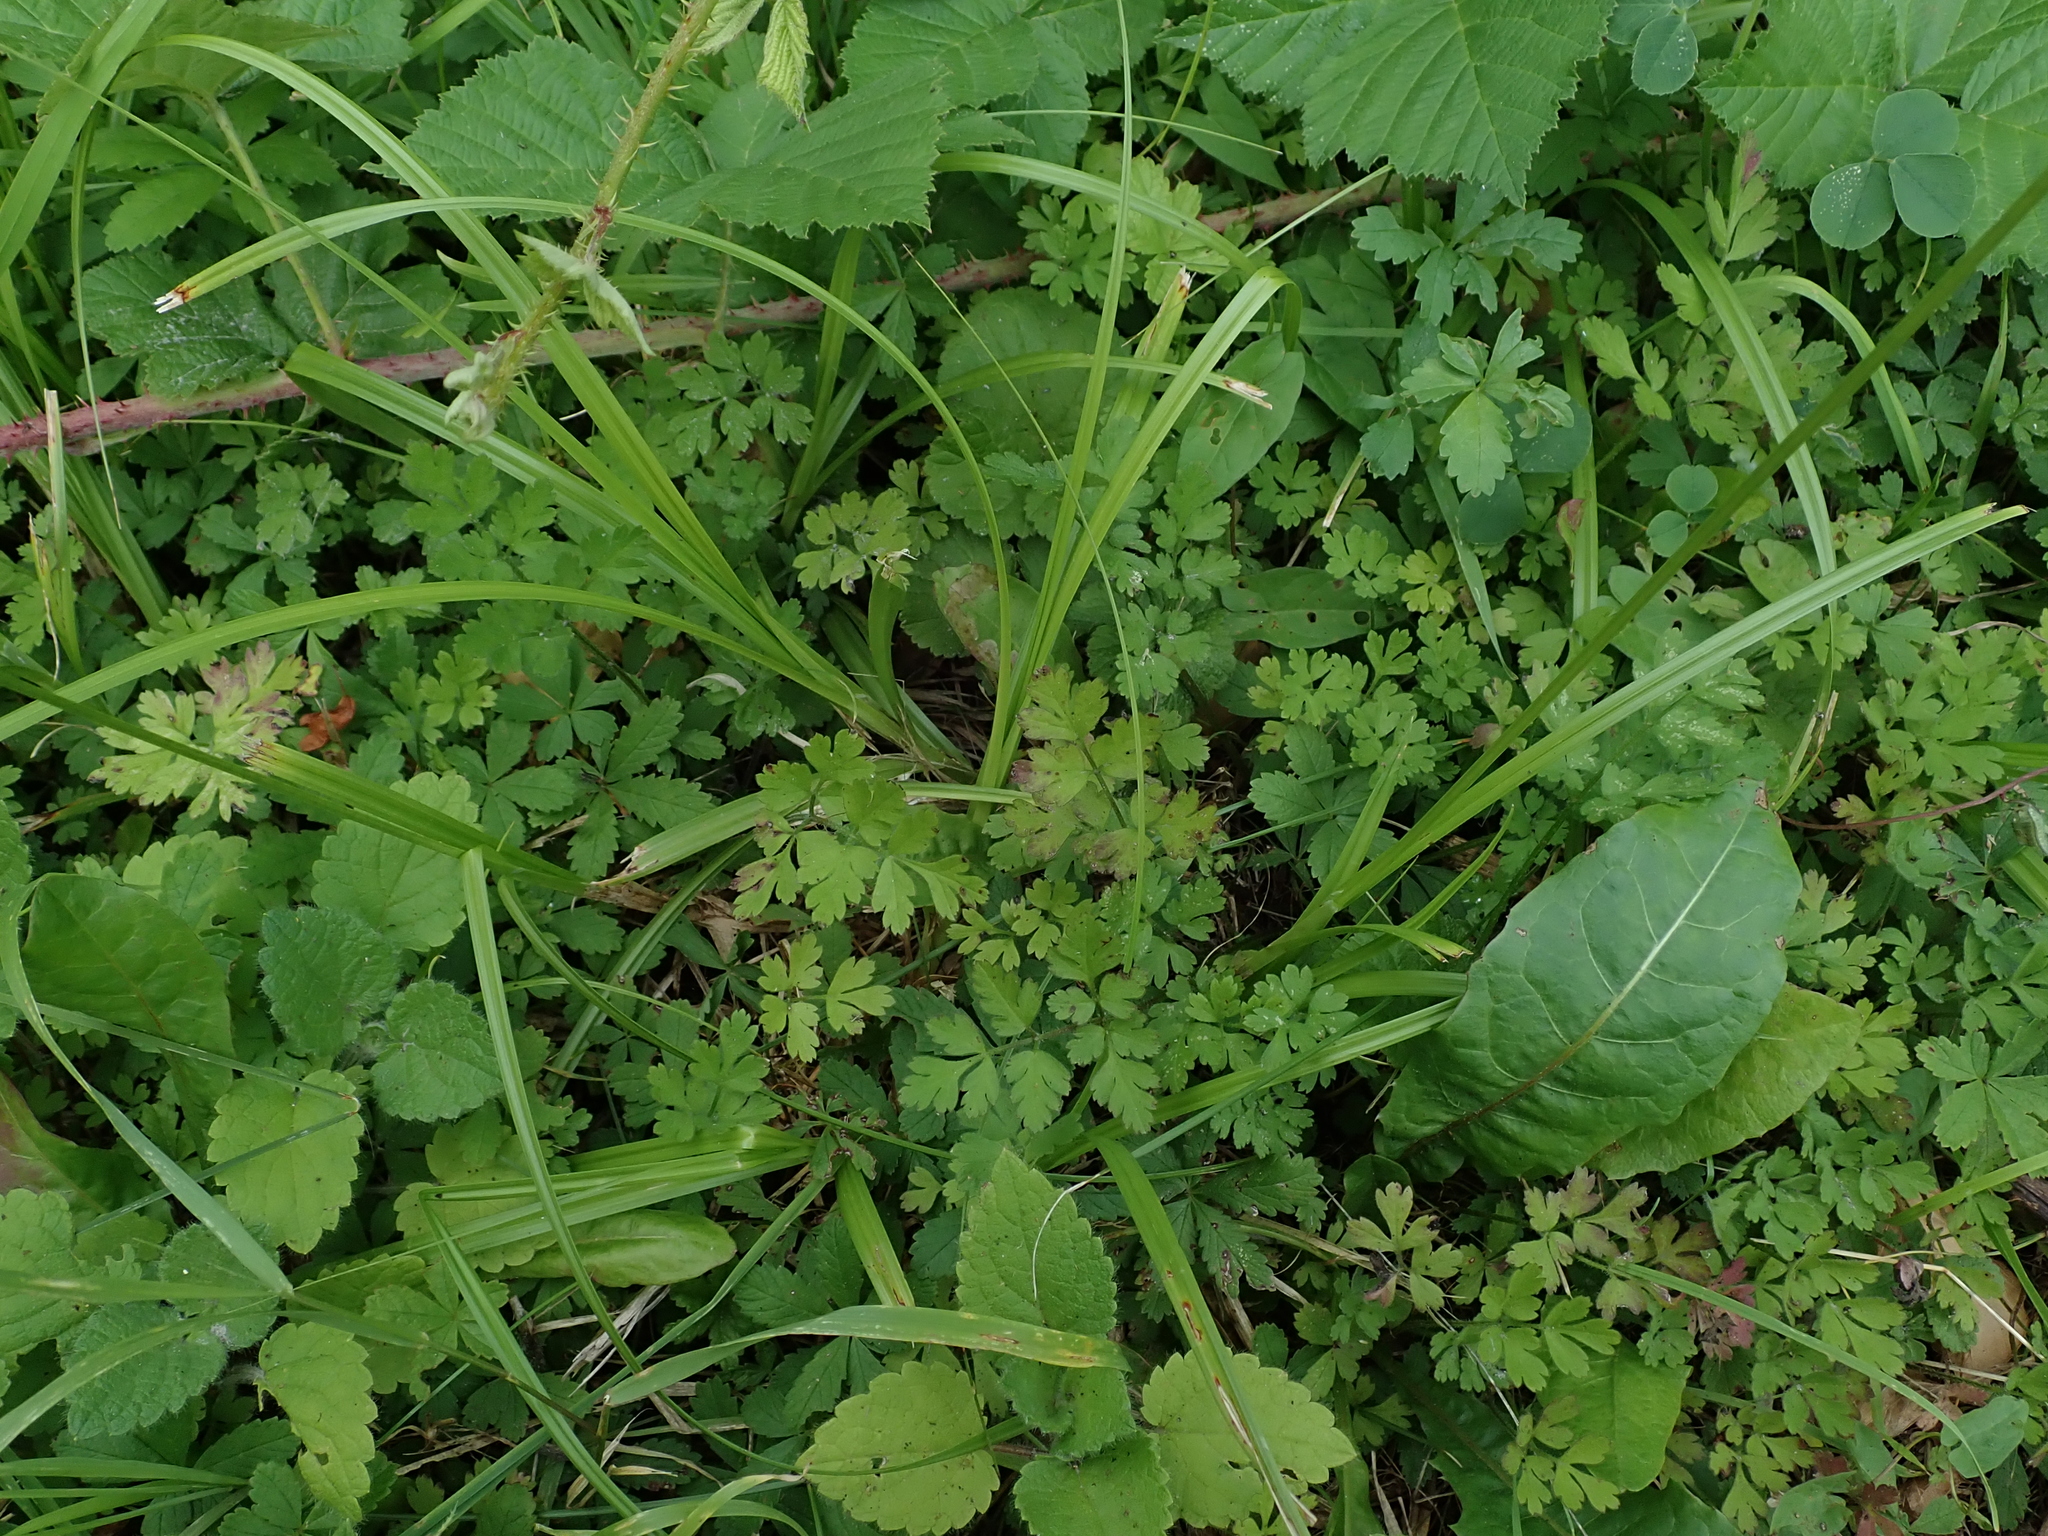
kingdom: Plantae
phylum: Tracheophyta
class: Liliopsida
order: Poales
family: Cyperaceae
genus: Carex
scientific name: Carex otrubae
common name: False fox-sedge
